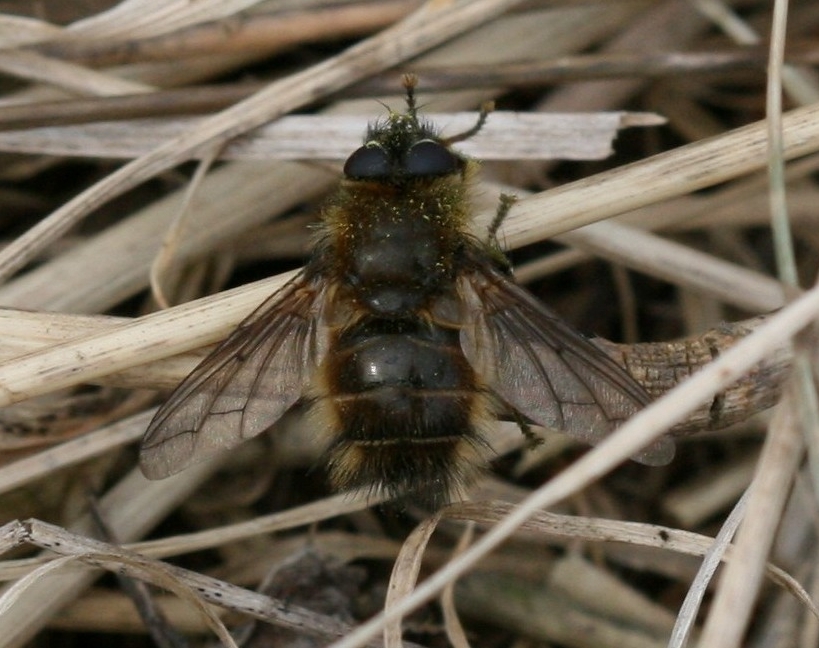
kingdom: Animalia
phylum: Arthropoda
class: Insecta
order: Diptera
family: Tachinidae
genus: Tachina
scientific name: Tachina ursina
